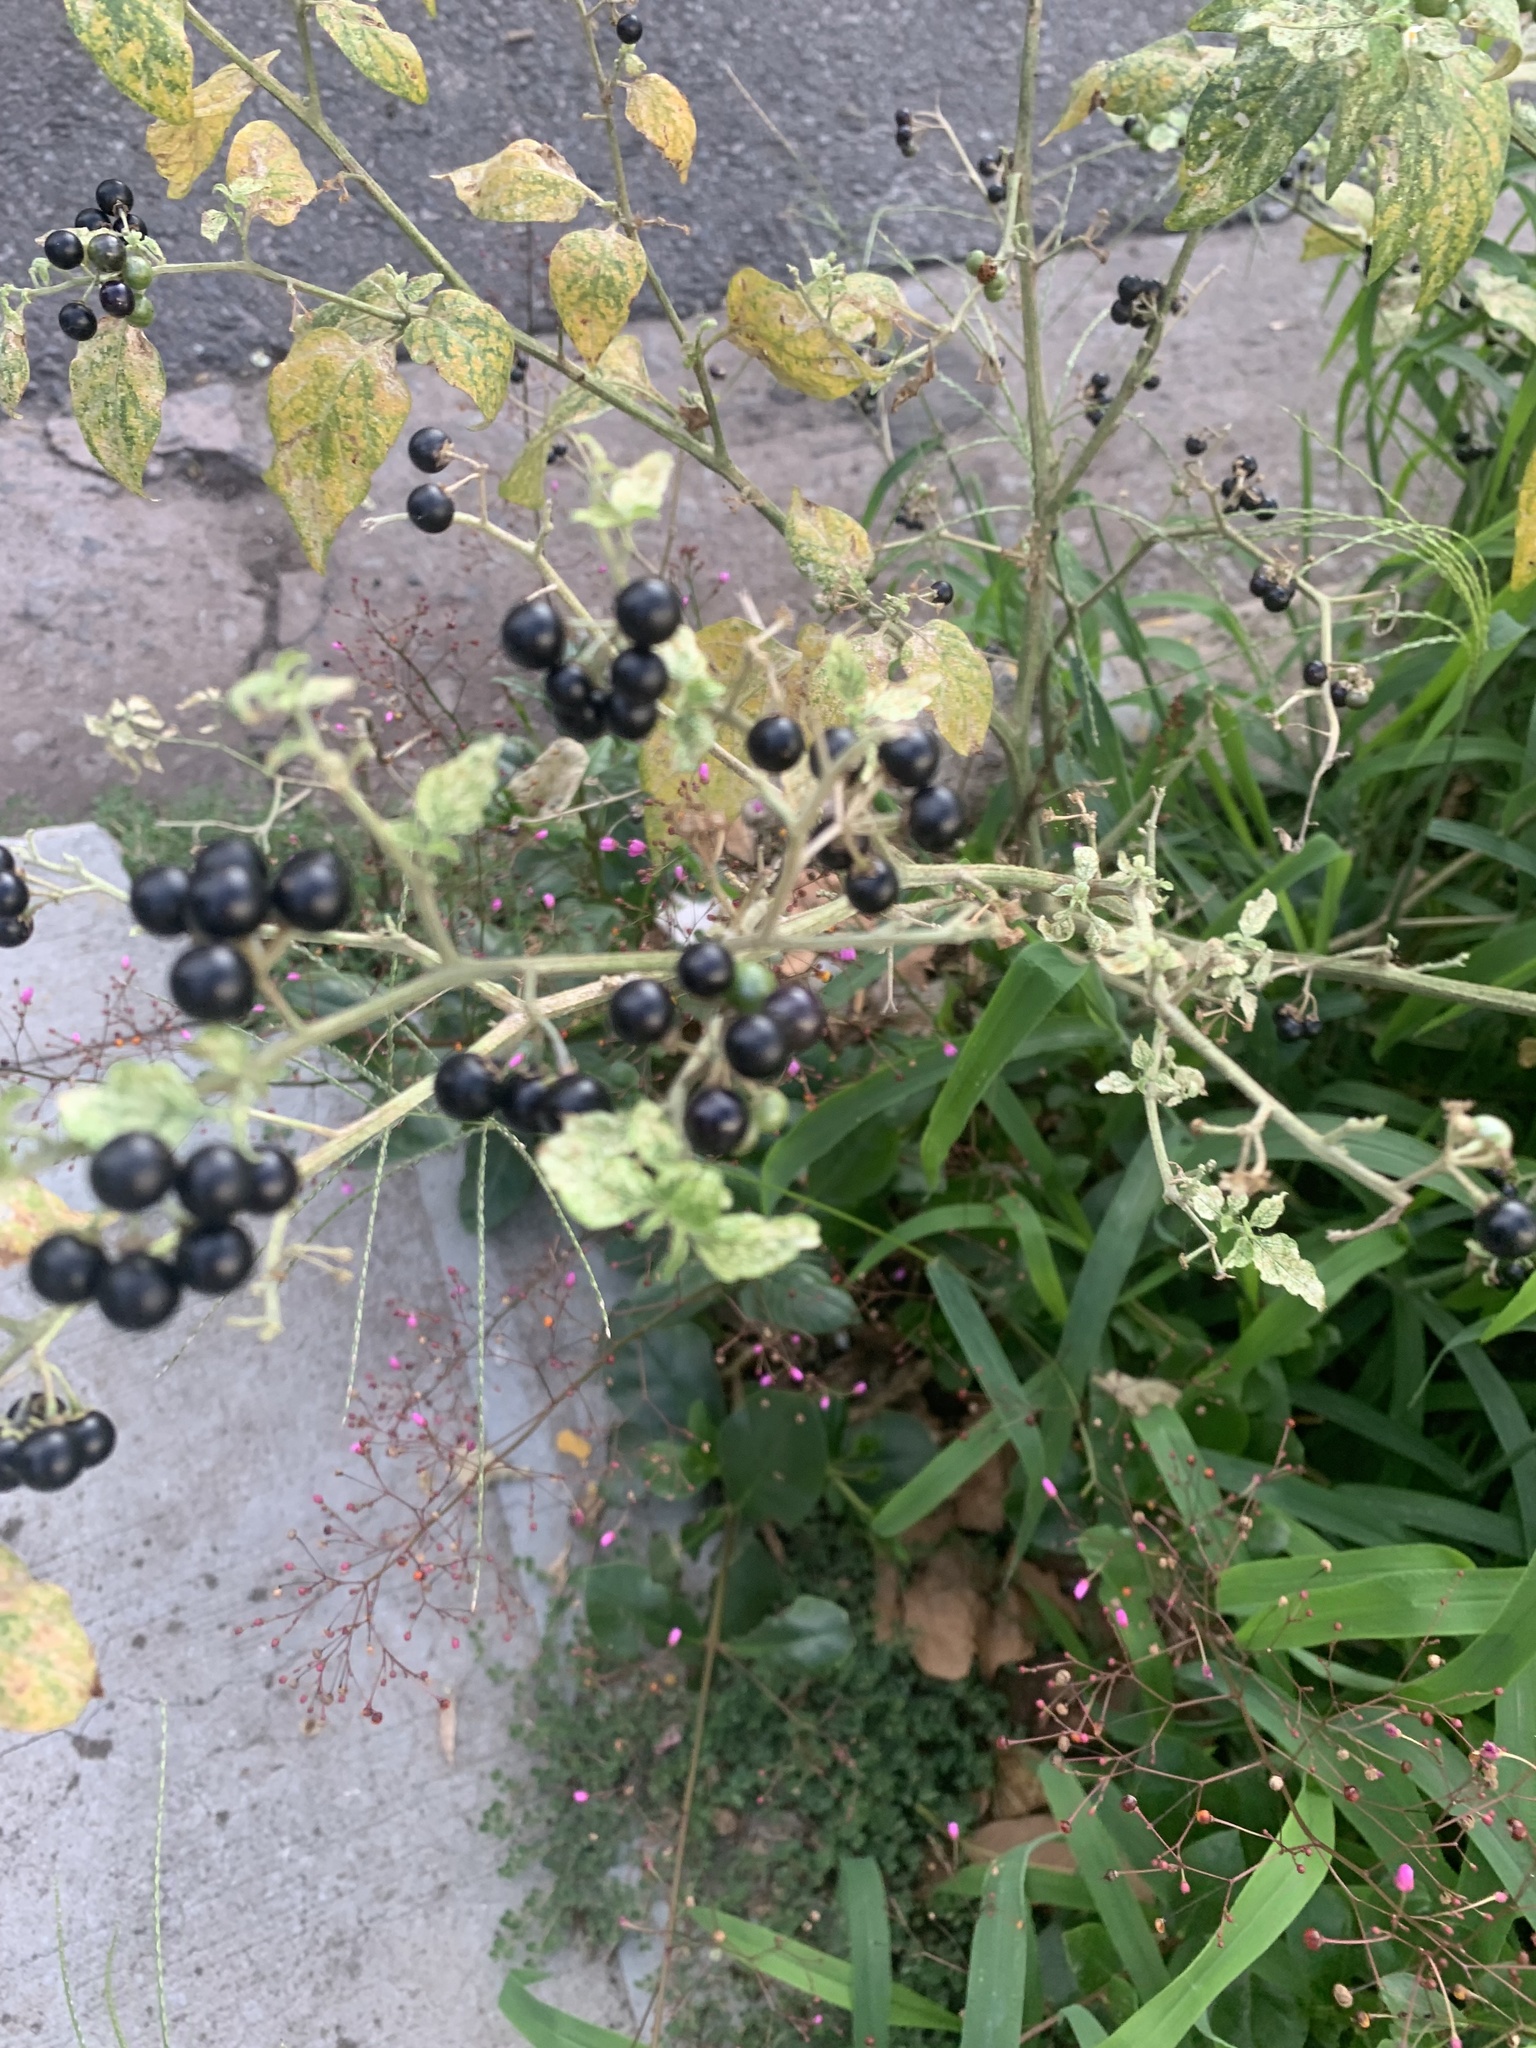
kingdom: Plantae
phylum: Tracheophyta
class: Magnoliopsida
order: Solanales
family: Solanaceae
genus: Solanum
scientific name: Solanum americanum
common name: American black nightshade
